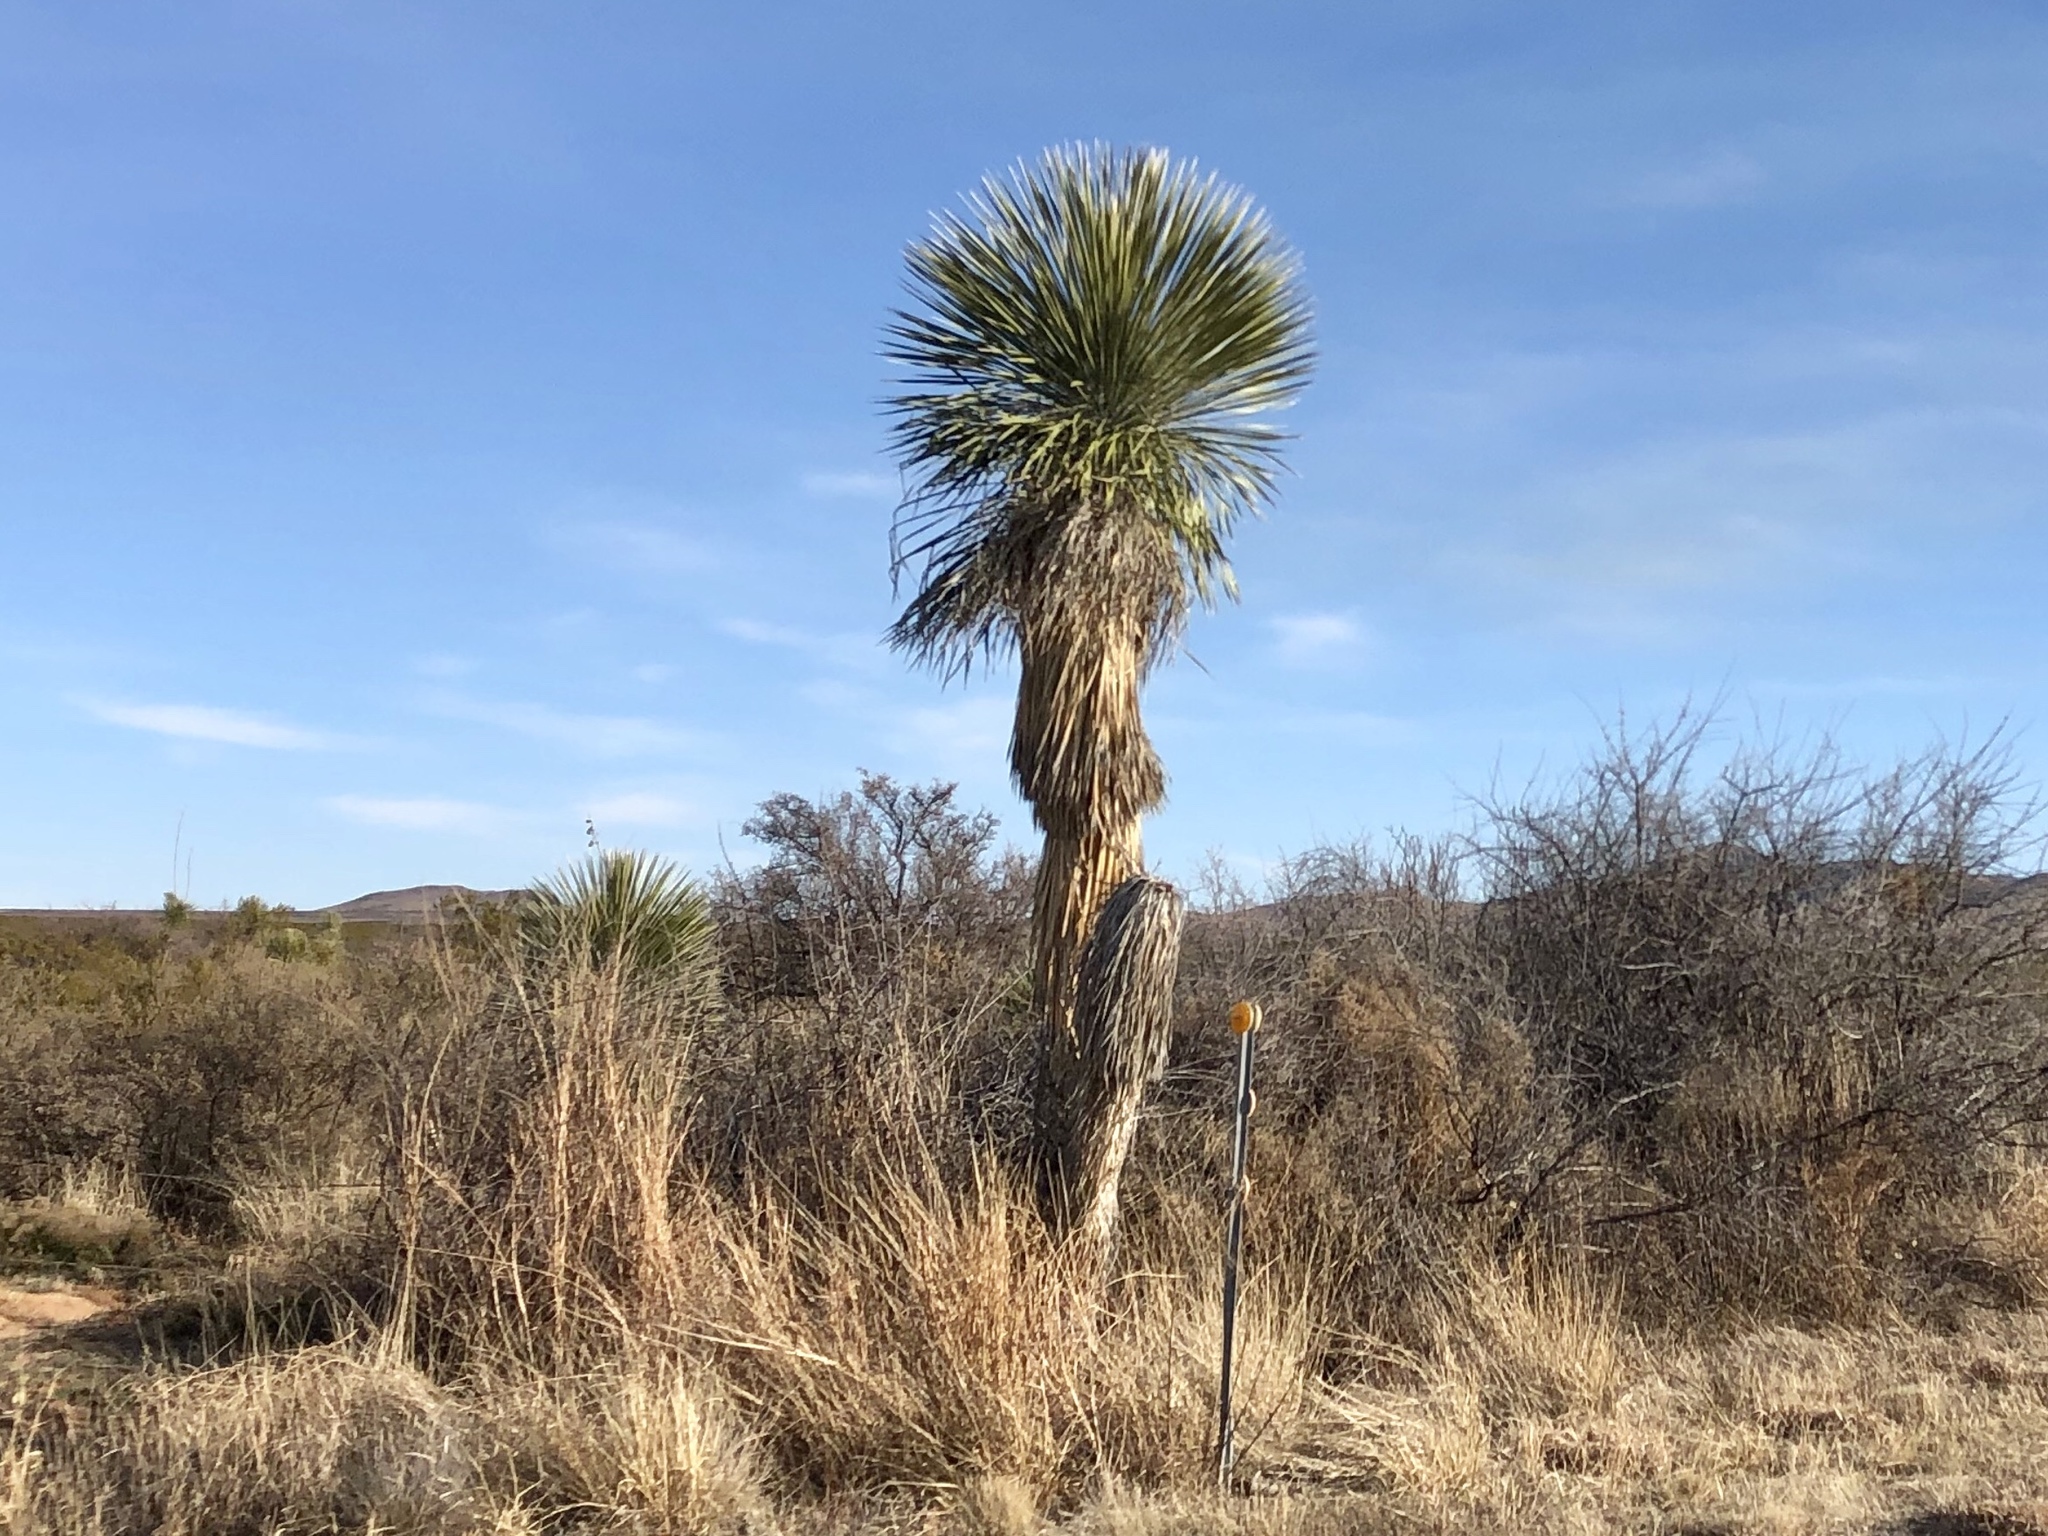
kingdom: Plantae
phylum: Tracheophyta
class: Liliopsida
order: Asparagales
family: Asparagaceae
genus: Yucca
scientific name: Yucca elata
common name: Palmella
